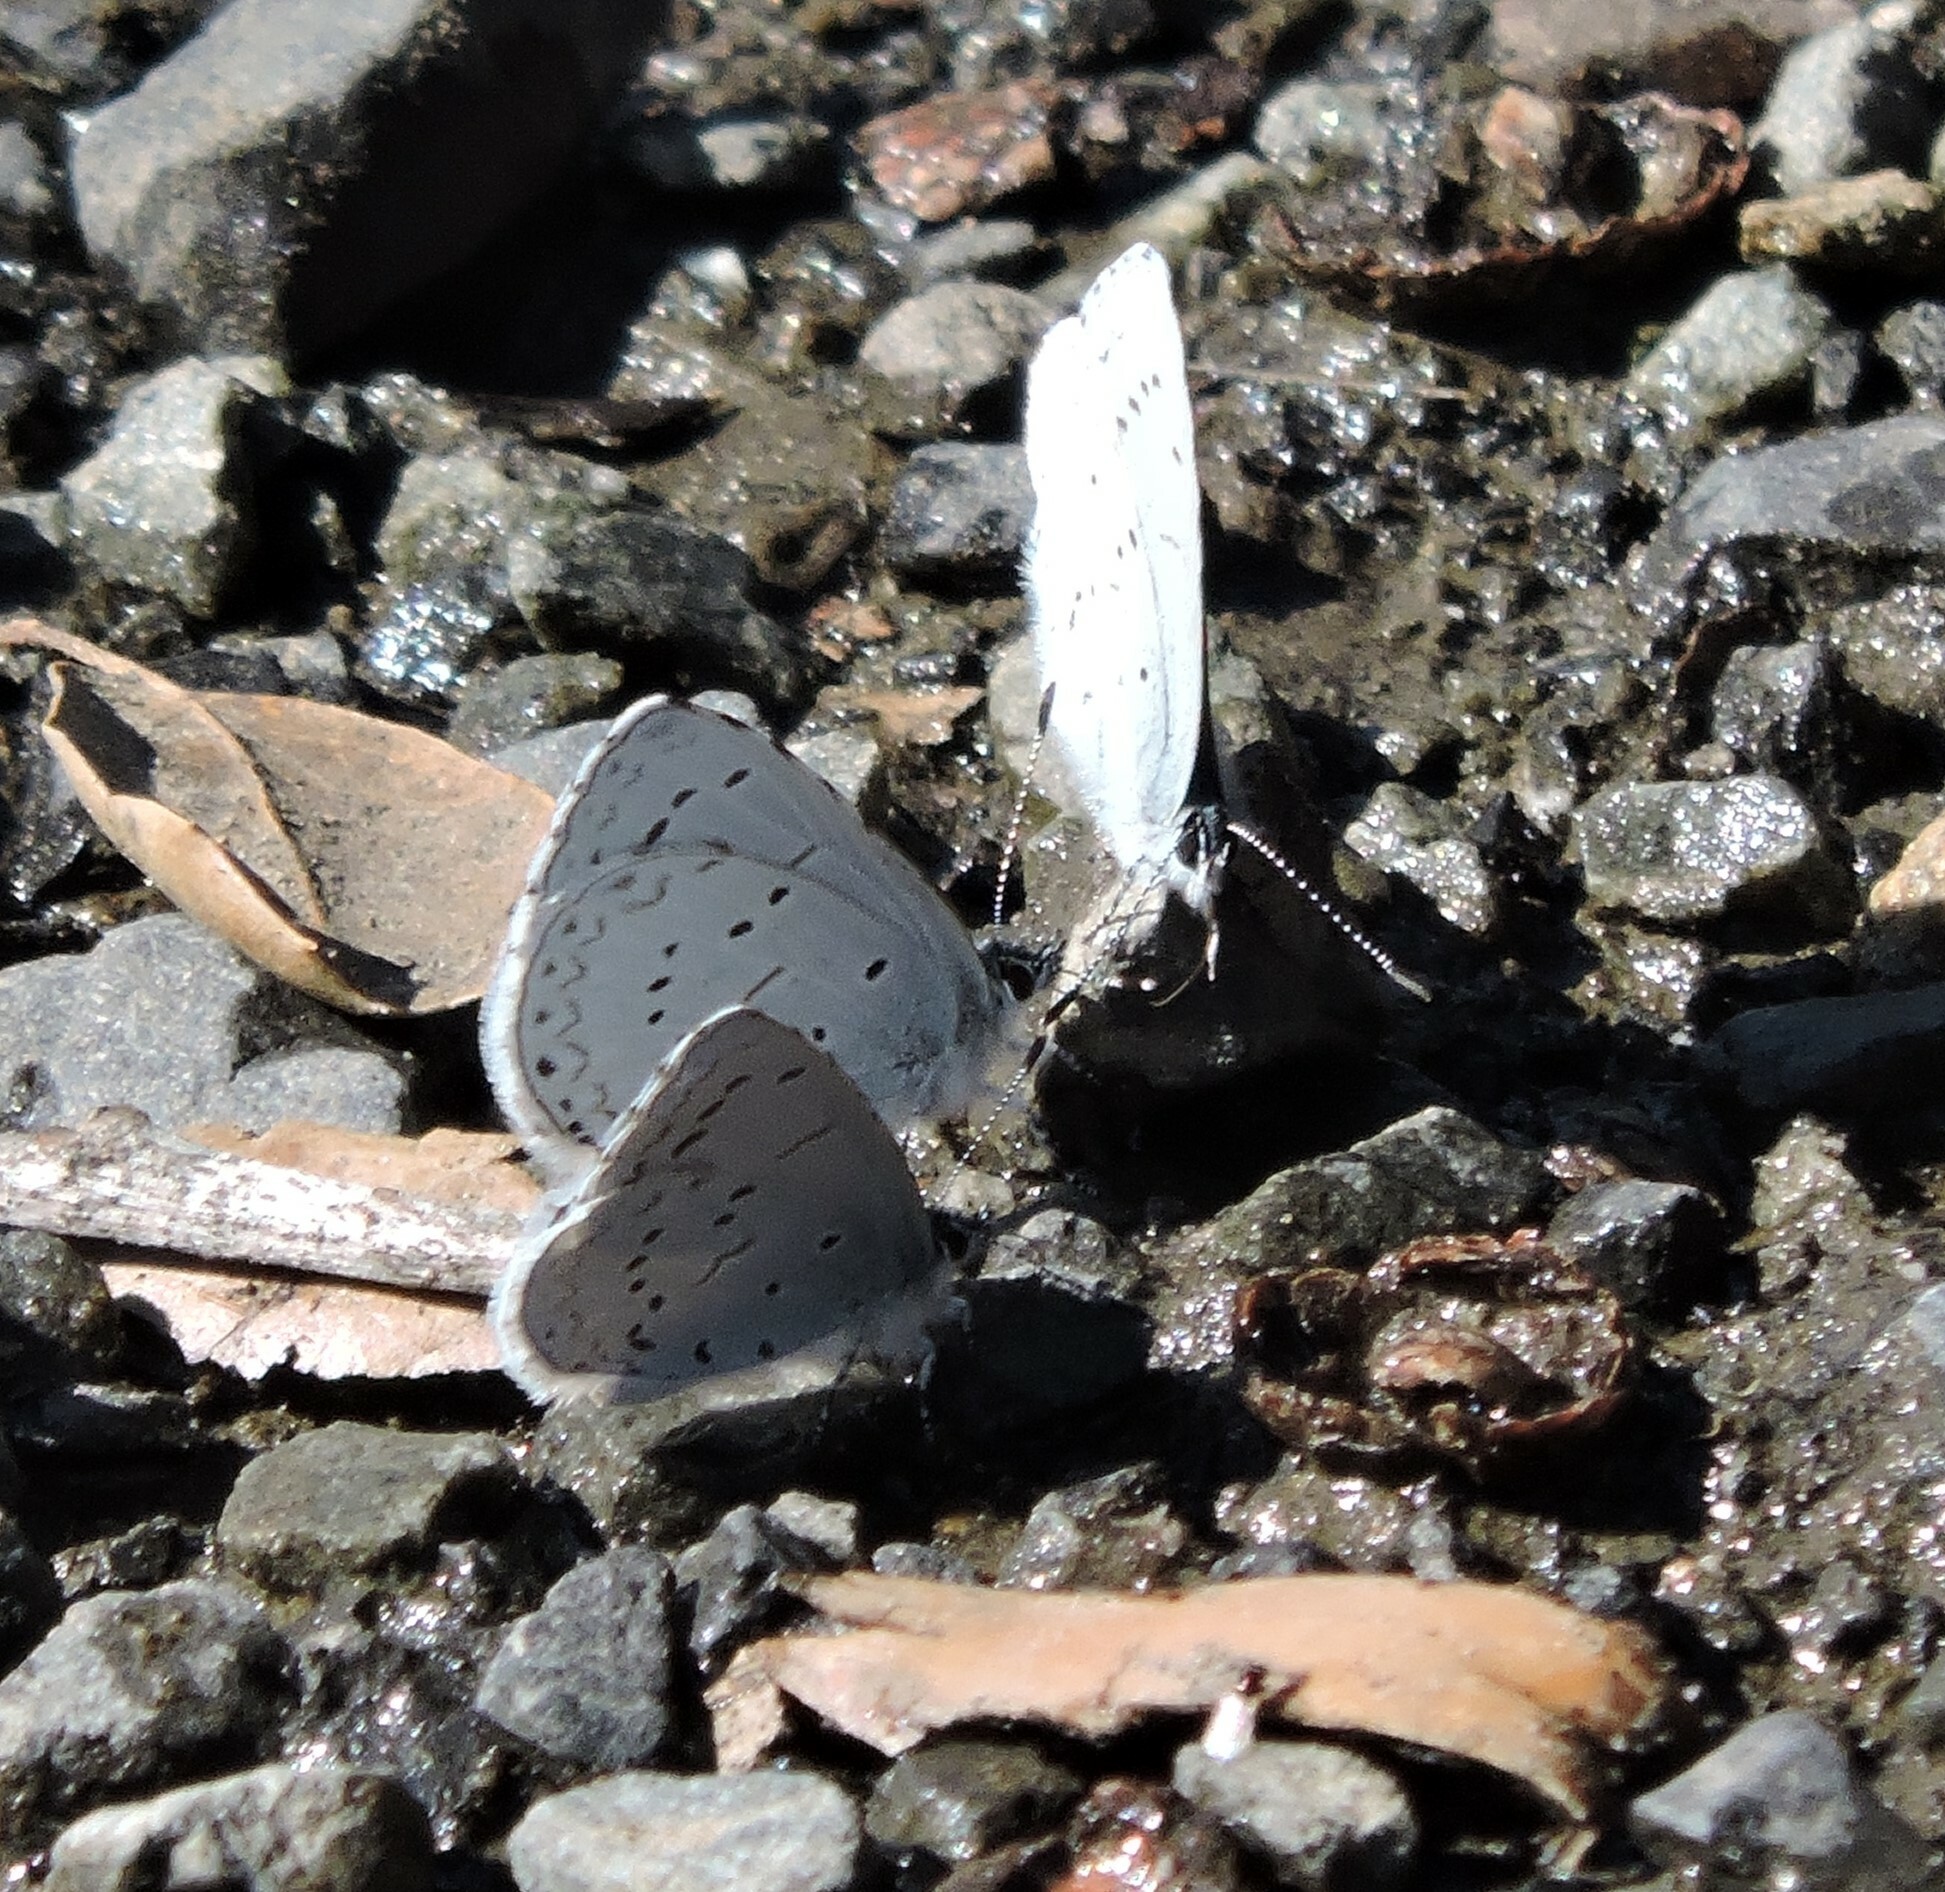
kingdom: Animalia
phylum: Arthropoda
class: Insecta
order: Lepidoptera
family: Lycaenidae
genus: Celastrina
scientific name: Celastrina ladon
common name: Spring azure
